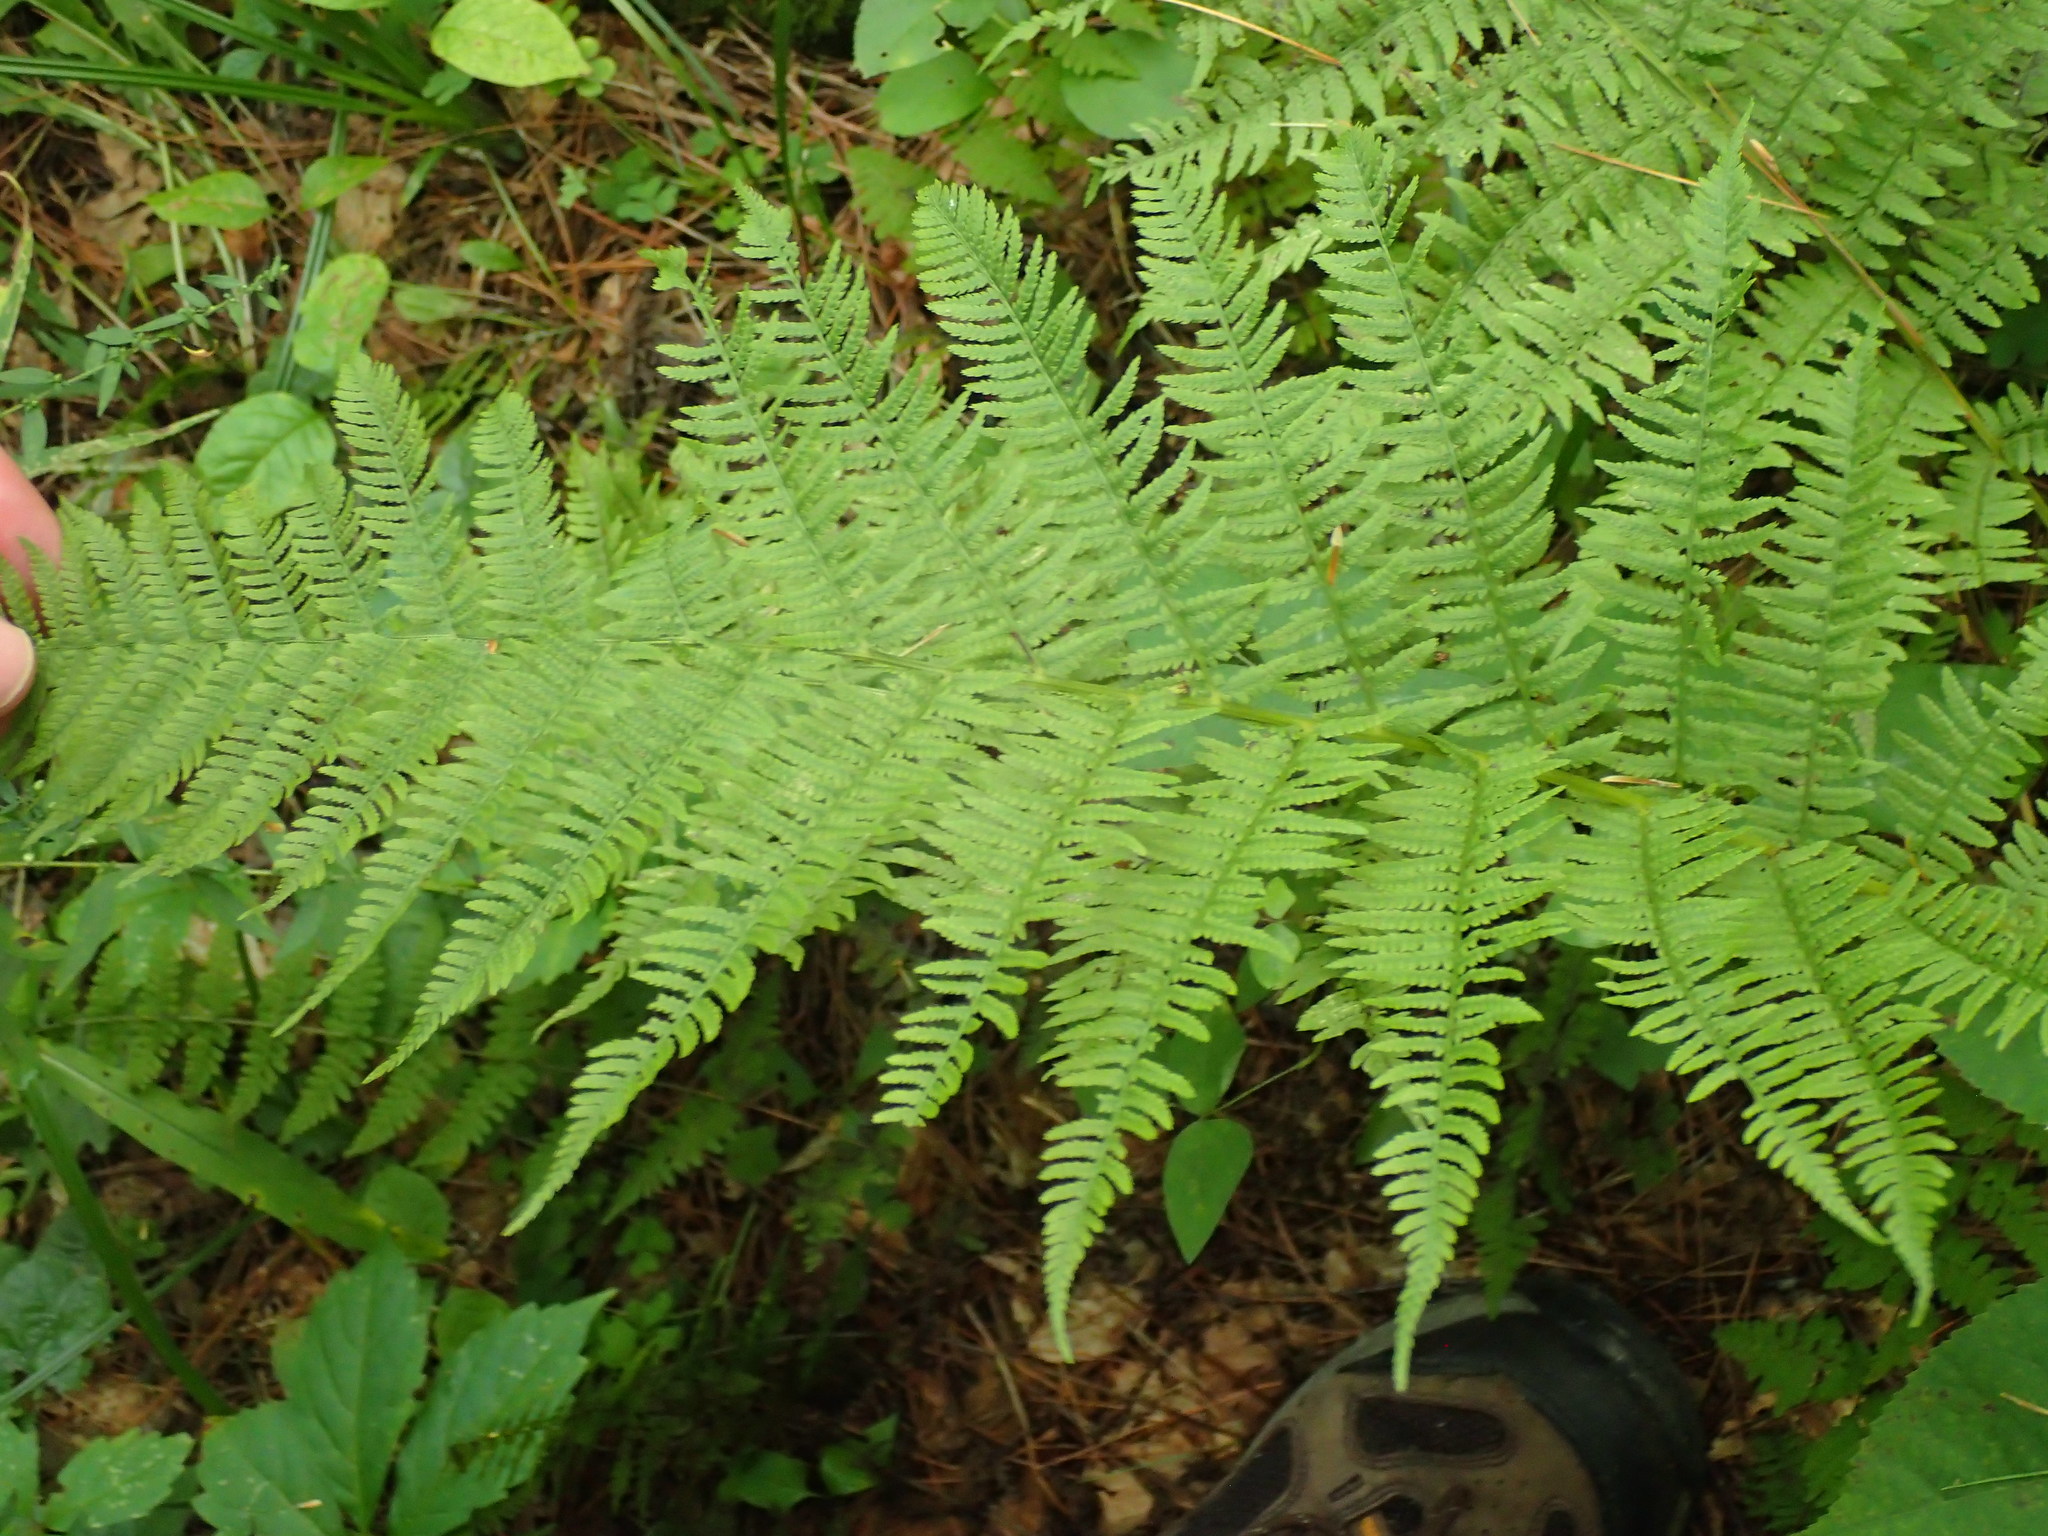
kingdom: Plantae
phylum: Tracheophyta
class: Polypodiopsida
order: Polypodiales
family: Athyriaceae
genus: Athyrium
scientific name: Athyrium angustum
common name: Northern lady fern
